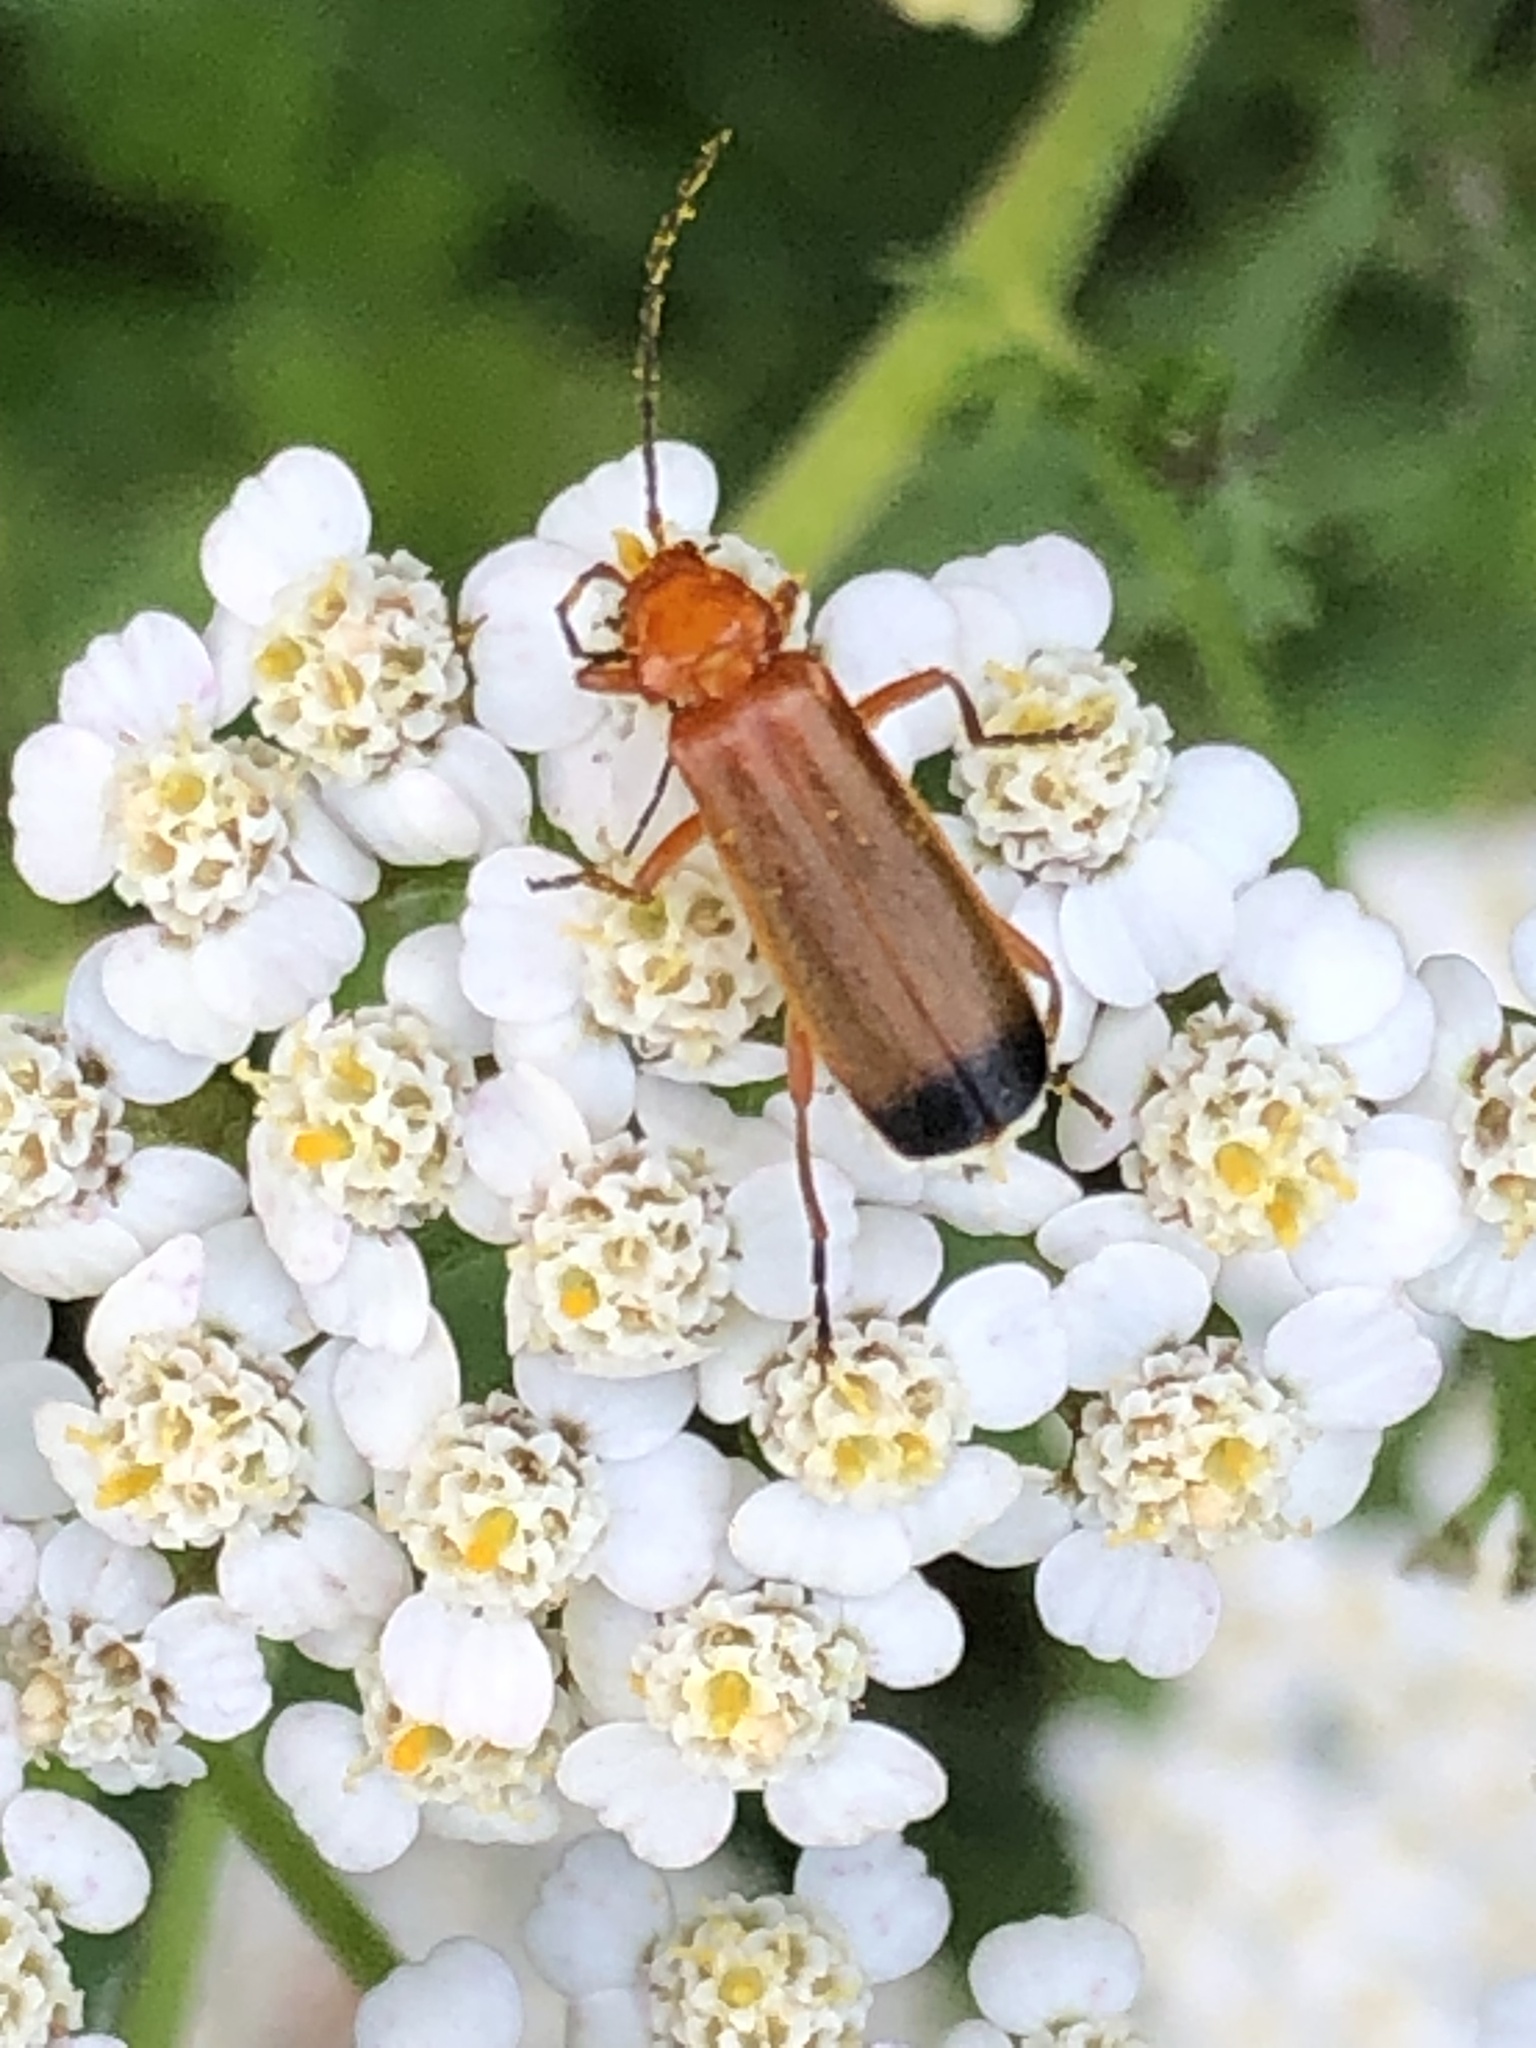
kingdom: Animalia
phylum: Arthropoda
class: Insecta
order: Coleoptera
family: Cantharidae
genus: Rhagonycha
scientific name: Rhagonycha fulva
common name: Common red soldier beetle
